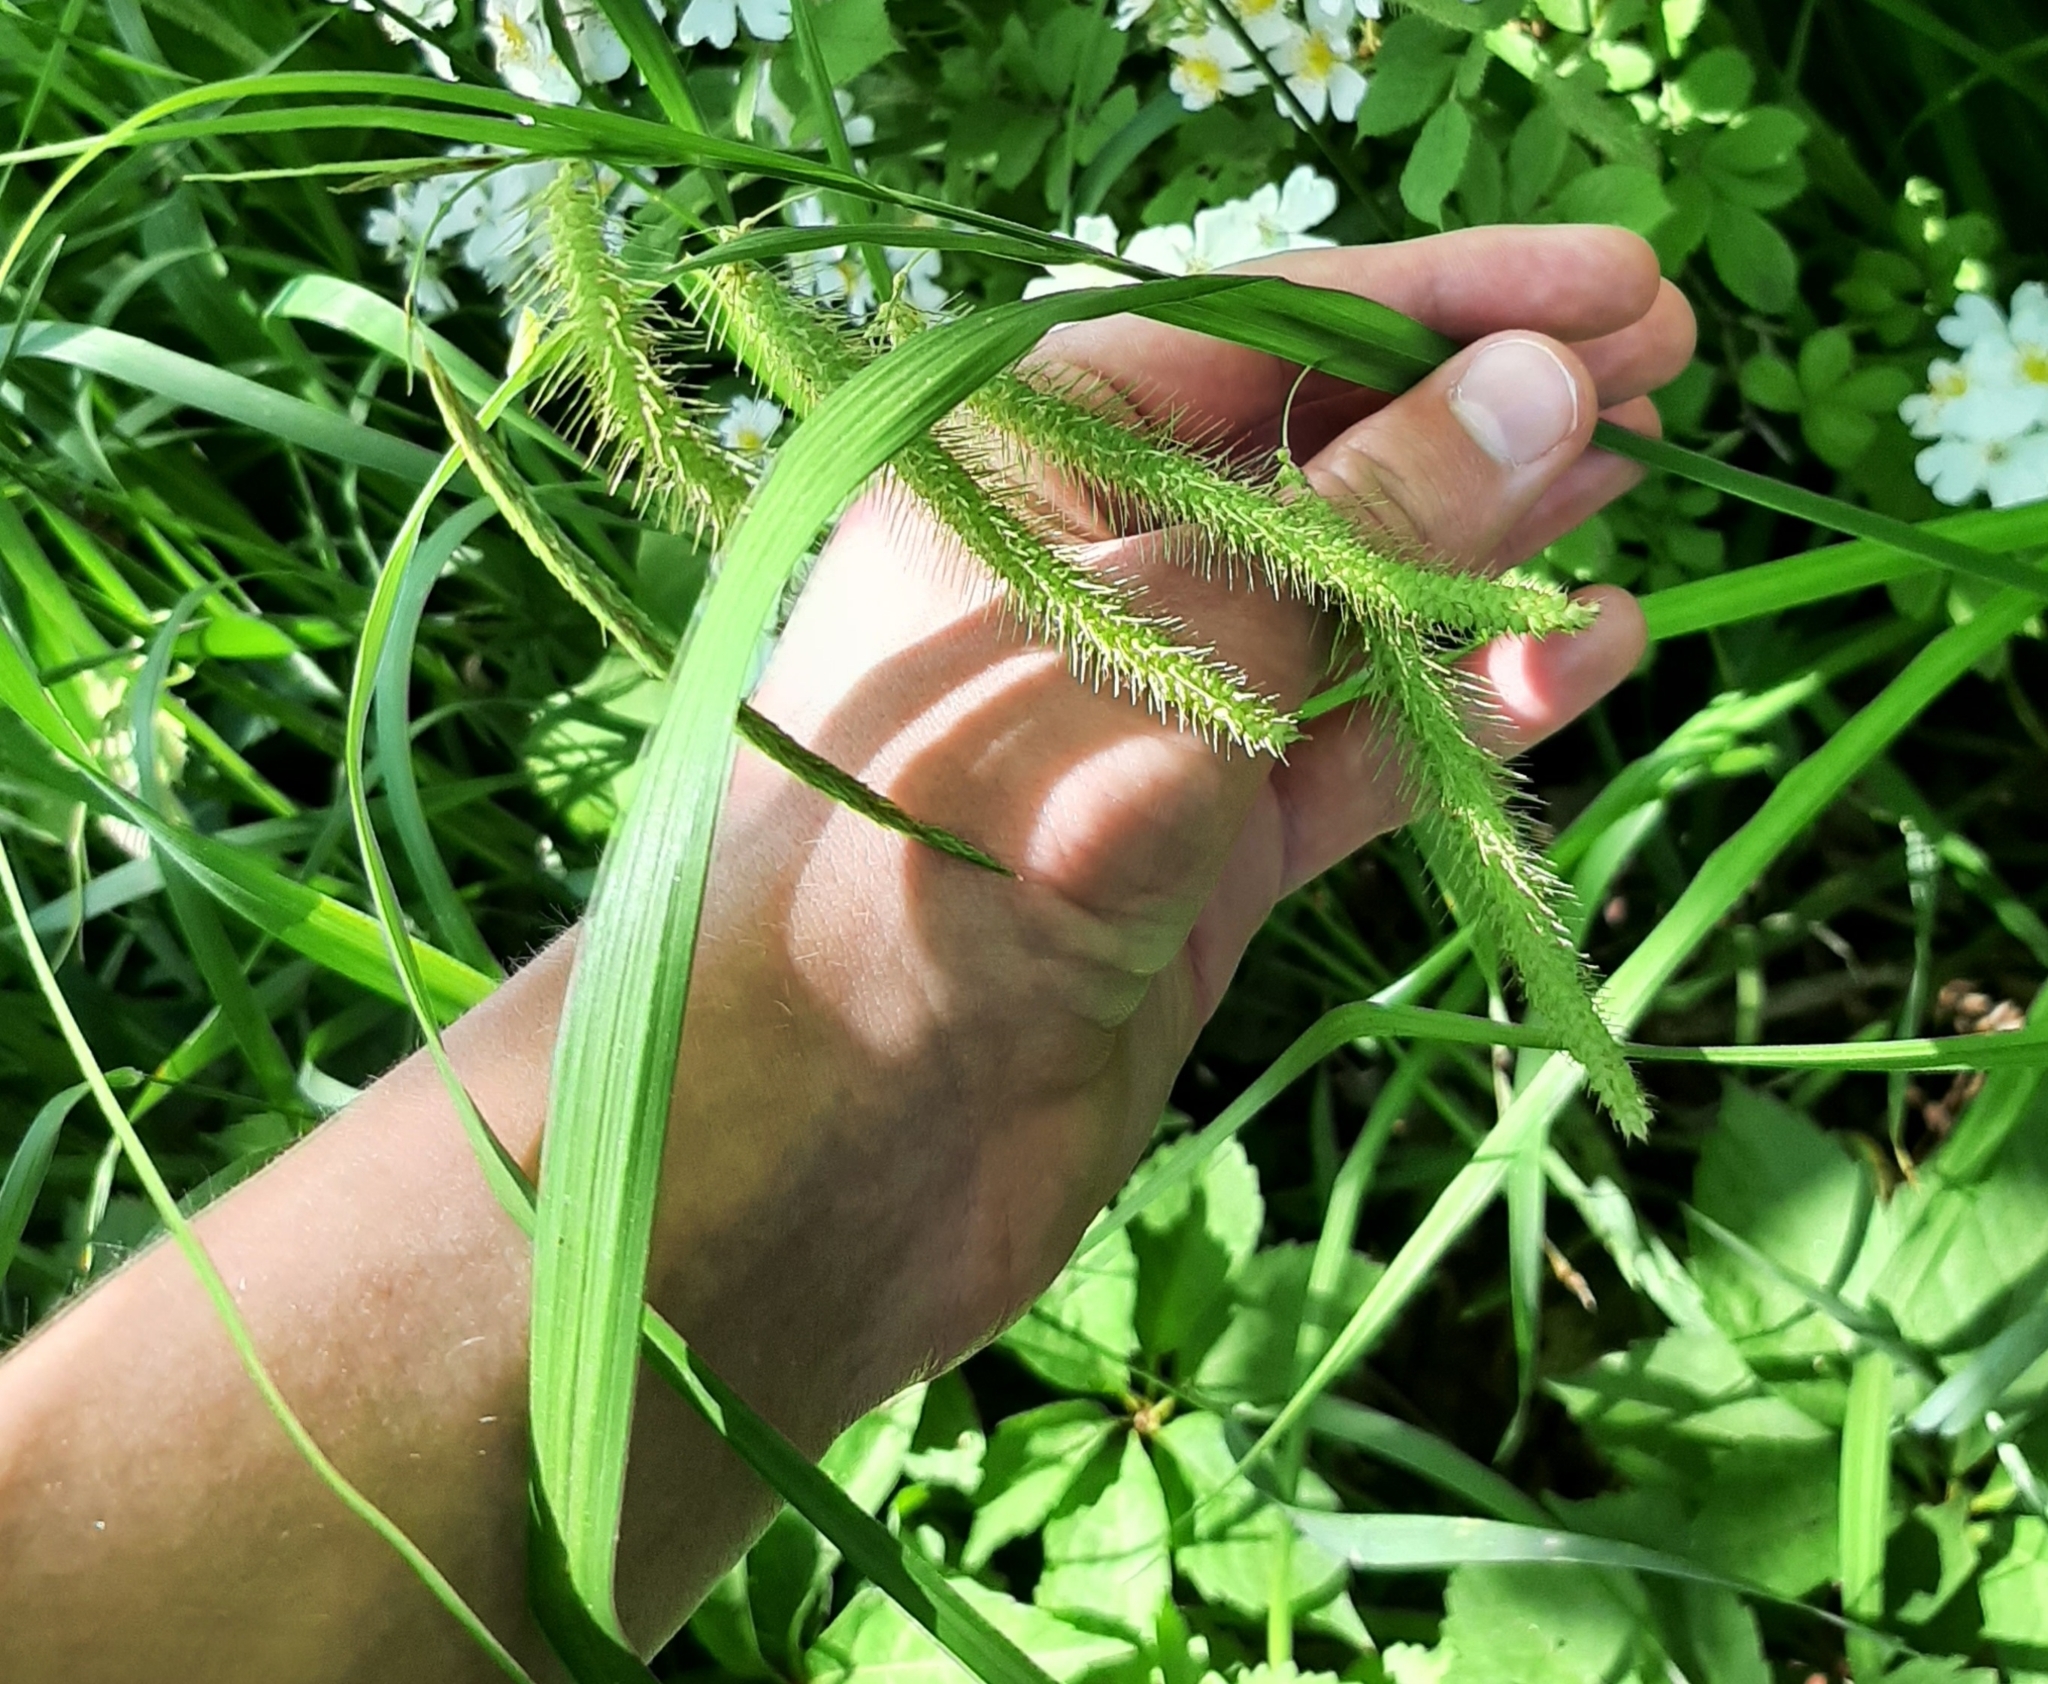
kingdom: Plantae
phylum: Tracheophyta
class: Liliopsida
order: Poales
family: Cyperaceae
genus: Carex
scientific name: Carex crinita
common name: Fringed sedge
